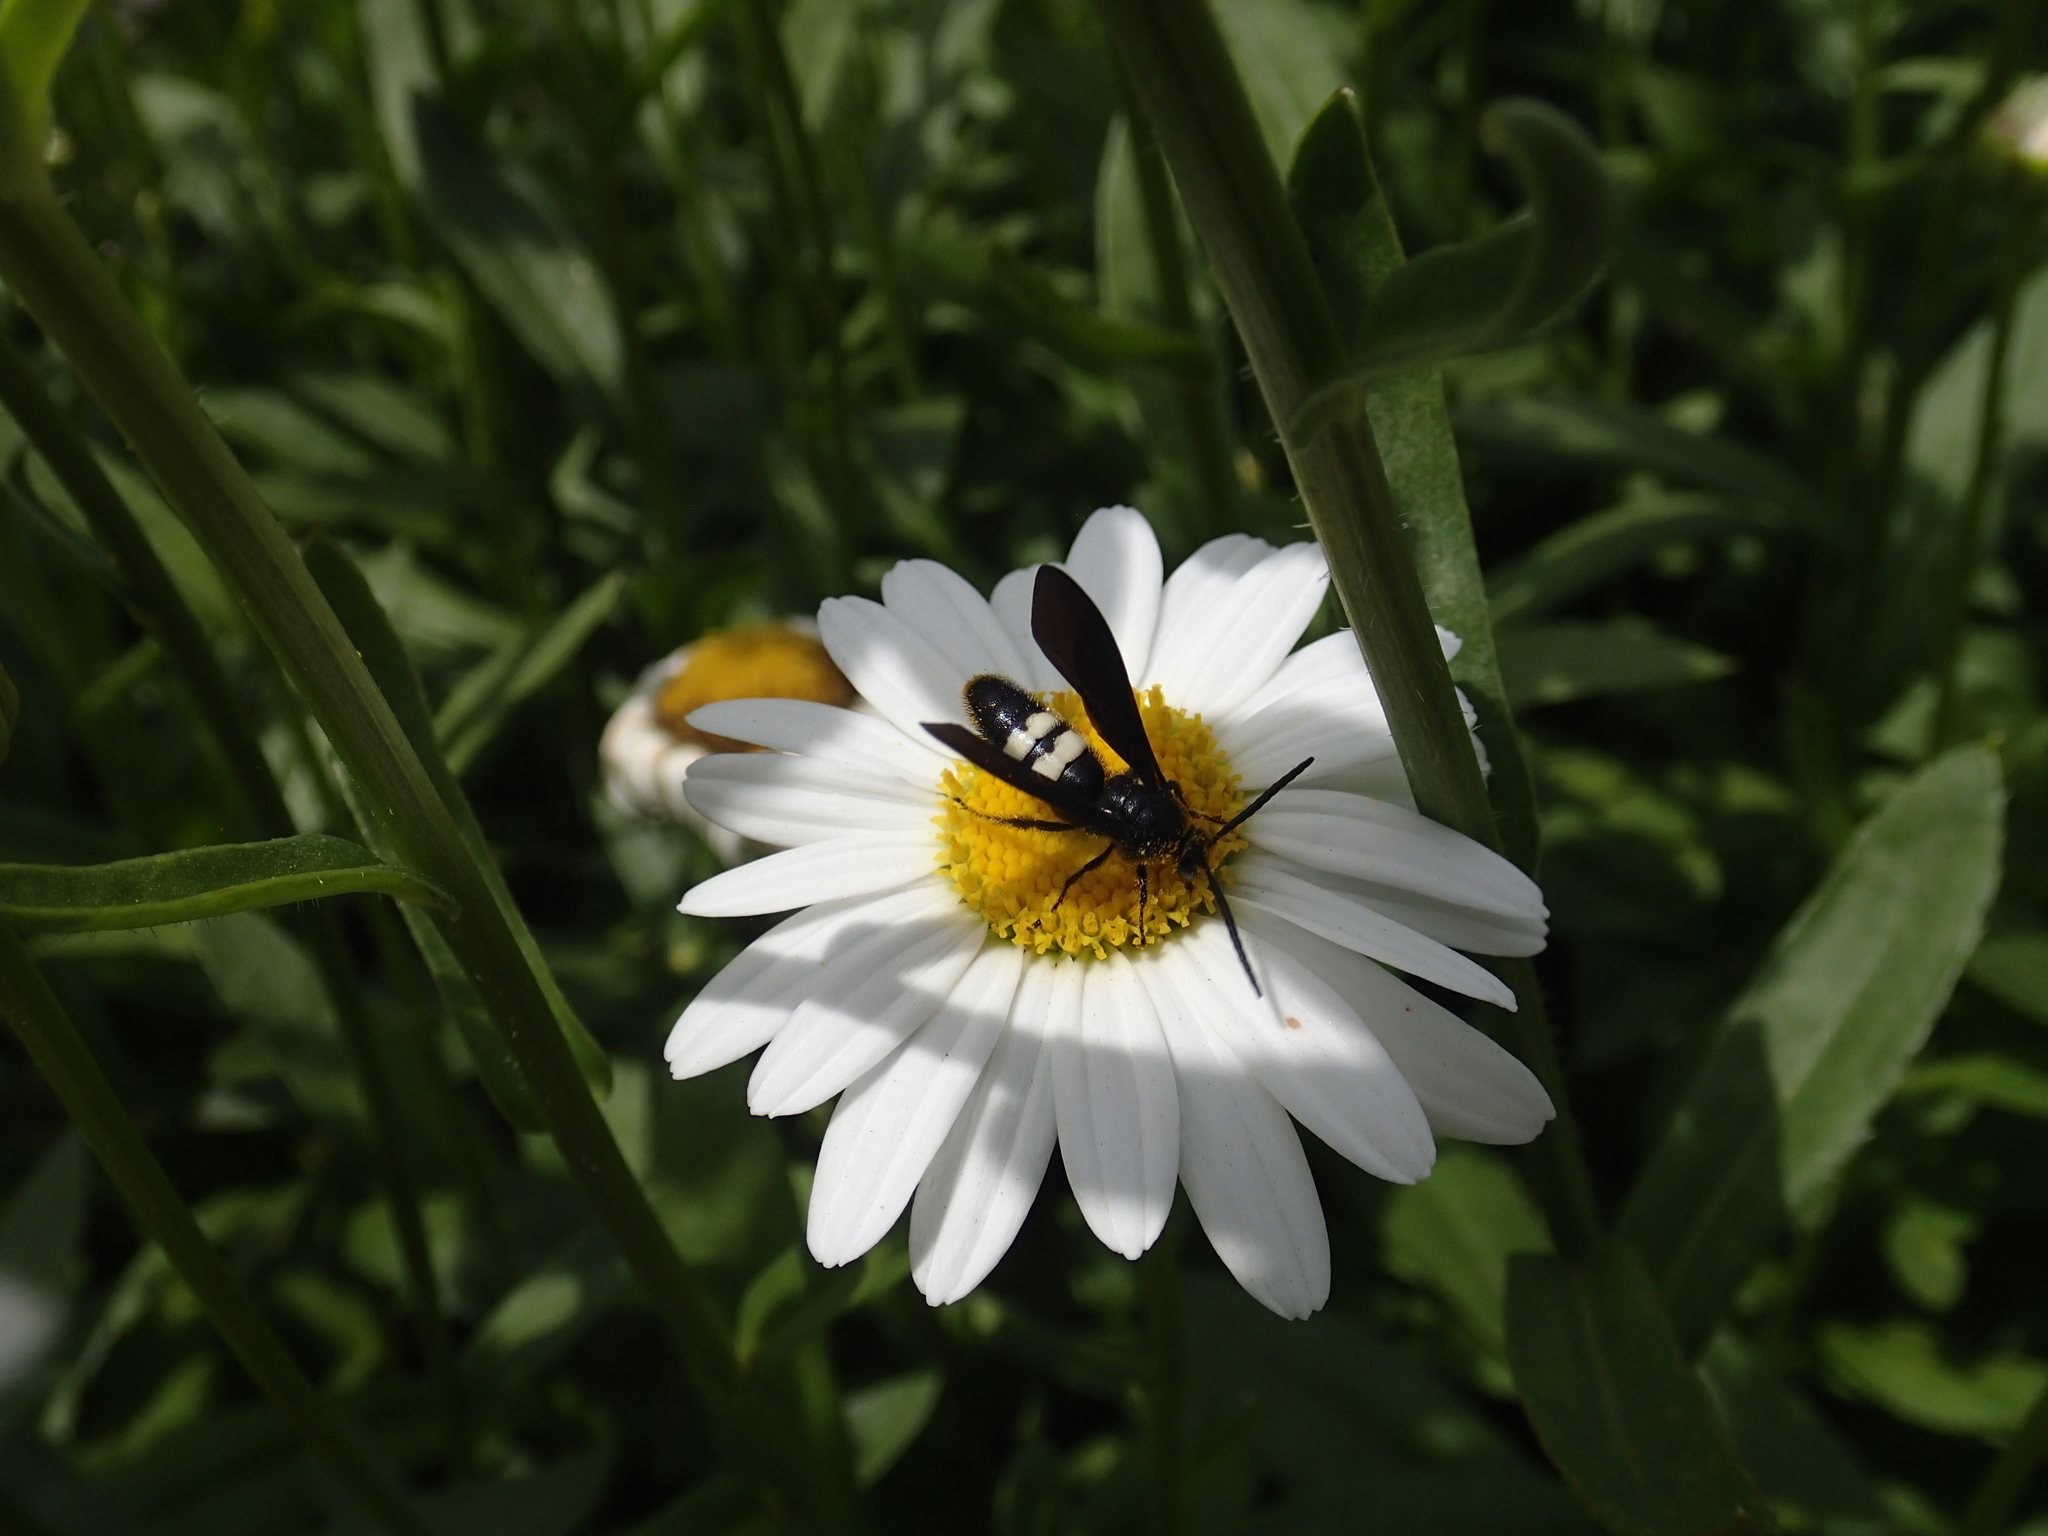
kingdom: Animalia
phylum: Arthropoda
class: Insecta
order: Hymenoptera
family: Scoliidae
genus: Scolia
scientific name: Scolia bicincta
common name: Double-banded scoliid wasp
